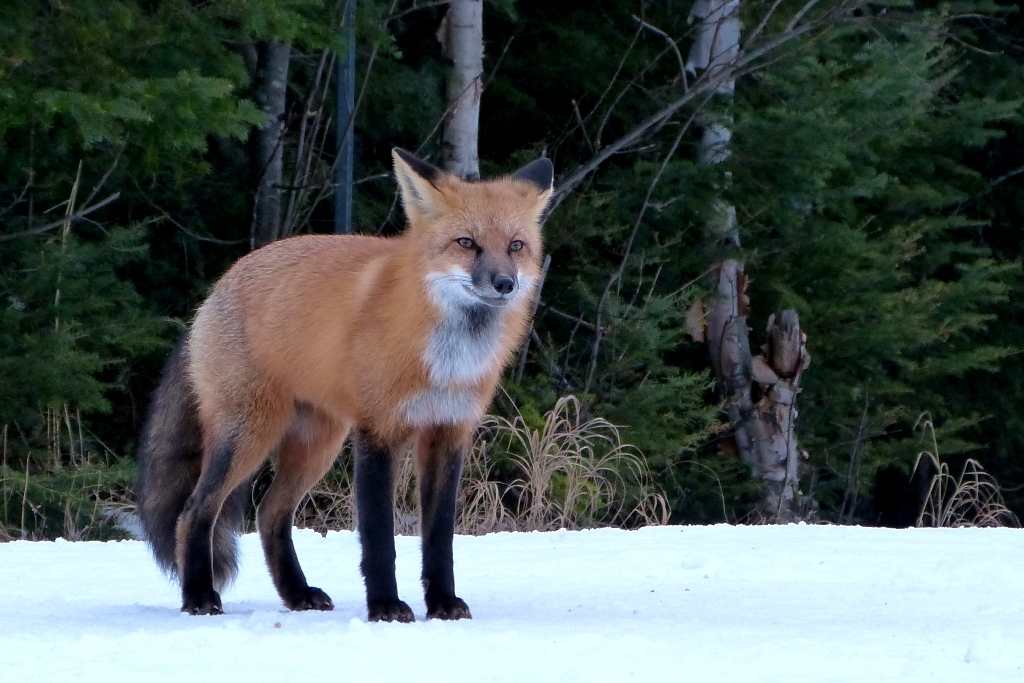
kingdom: Animalia
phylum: Chordata
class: Mammalia
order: Carnivora
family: Canidae
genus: Vulpes
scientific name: Vulpes vulpes
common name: Red fox
